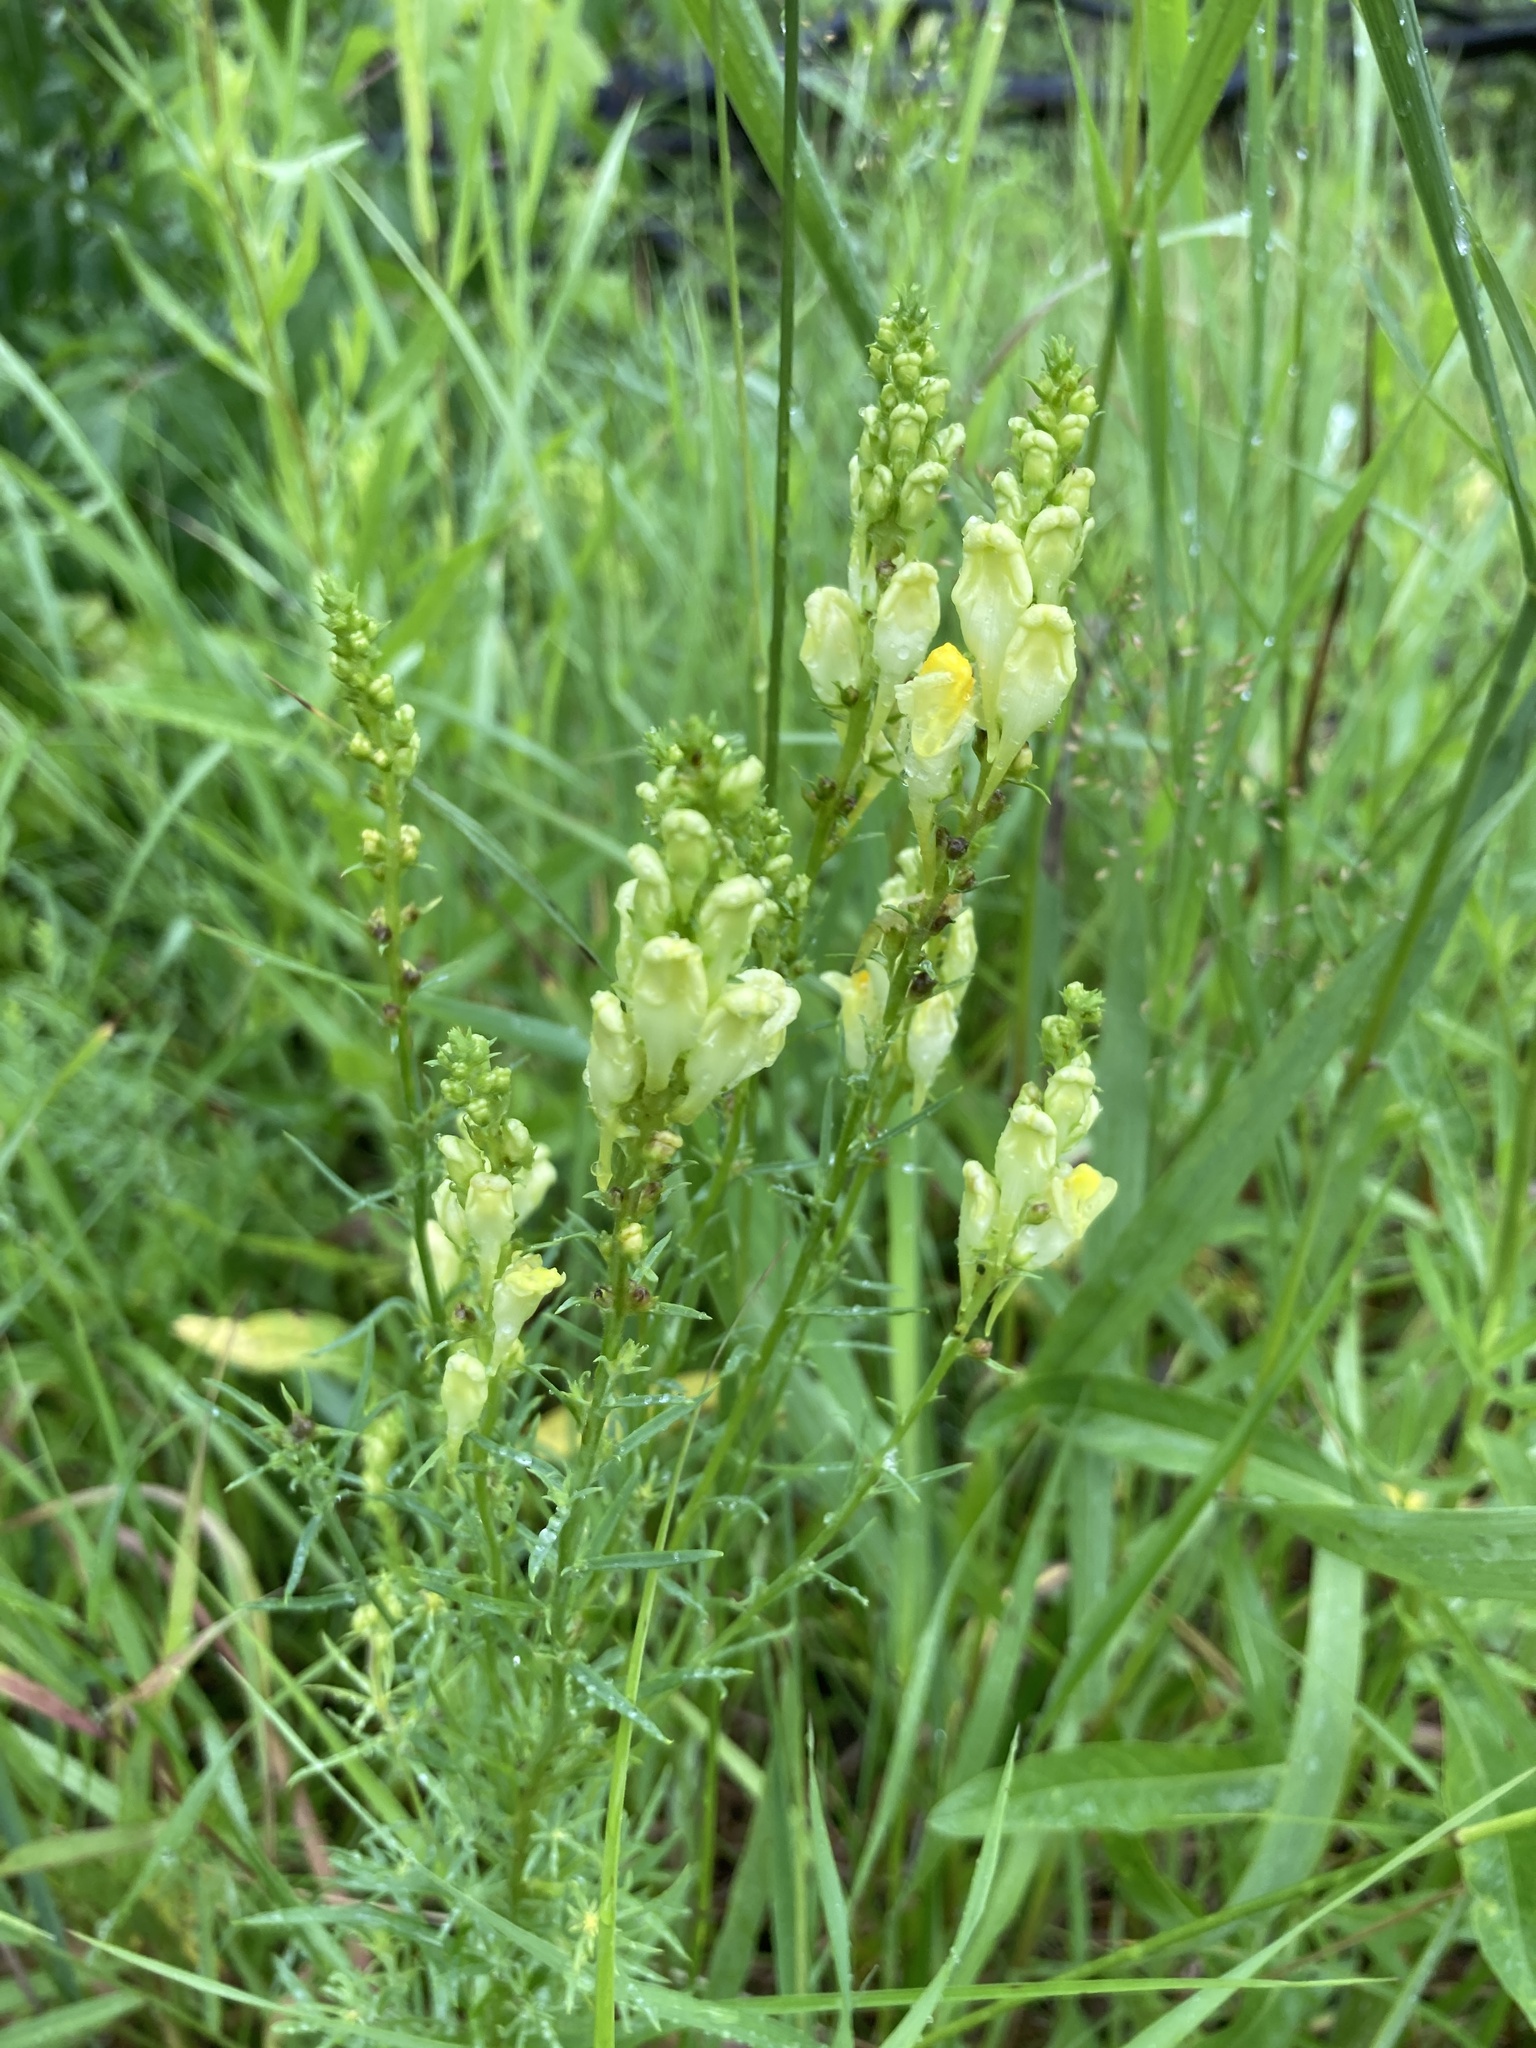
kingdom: Plantae
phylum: Tracheophyta
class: Magnoliopsida
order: Lamiales
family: Plantaginaceae
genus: Linaria
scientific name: Linaria vulgaris
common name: Butter and eggs
